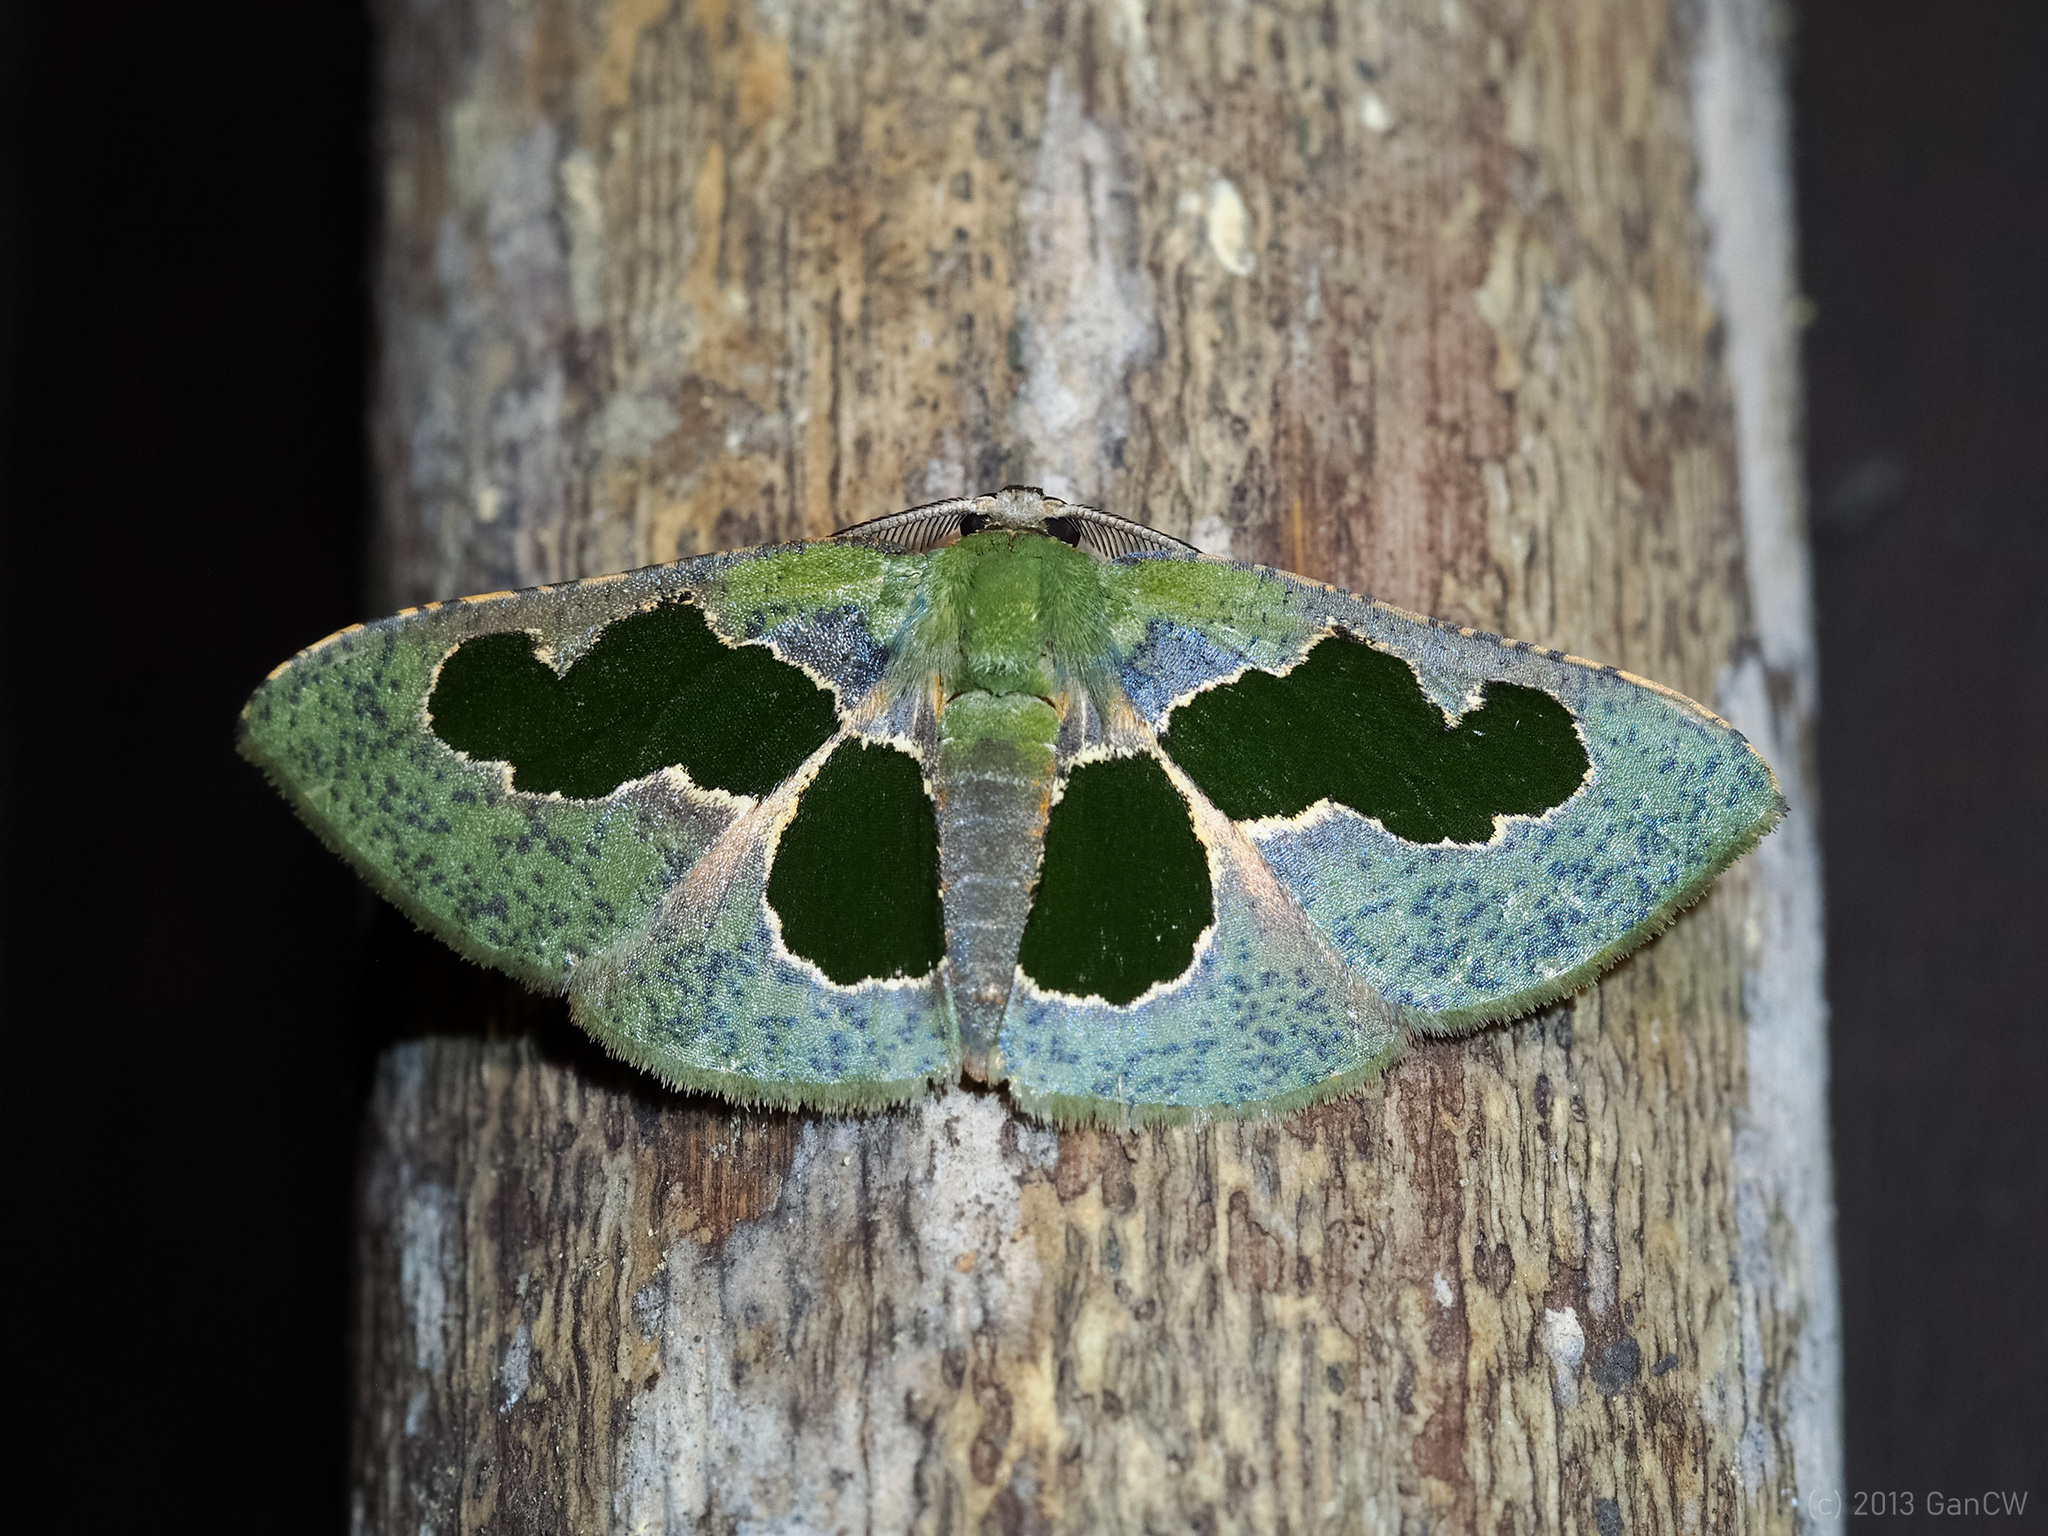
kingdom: Animalia
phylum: Arthropoda
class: Insecta
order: Lepidoptera
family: Geometridae
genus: Celenna
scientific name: Celenna
